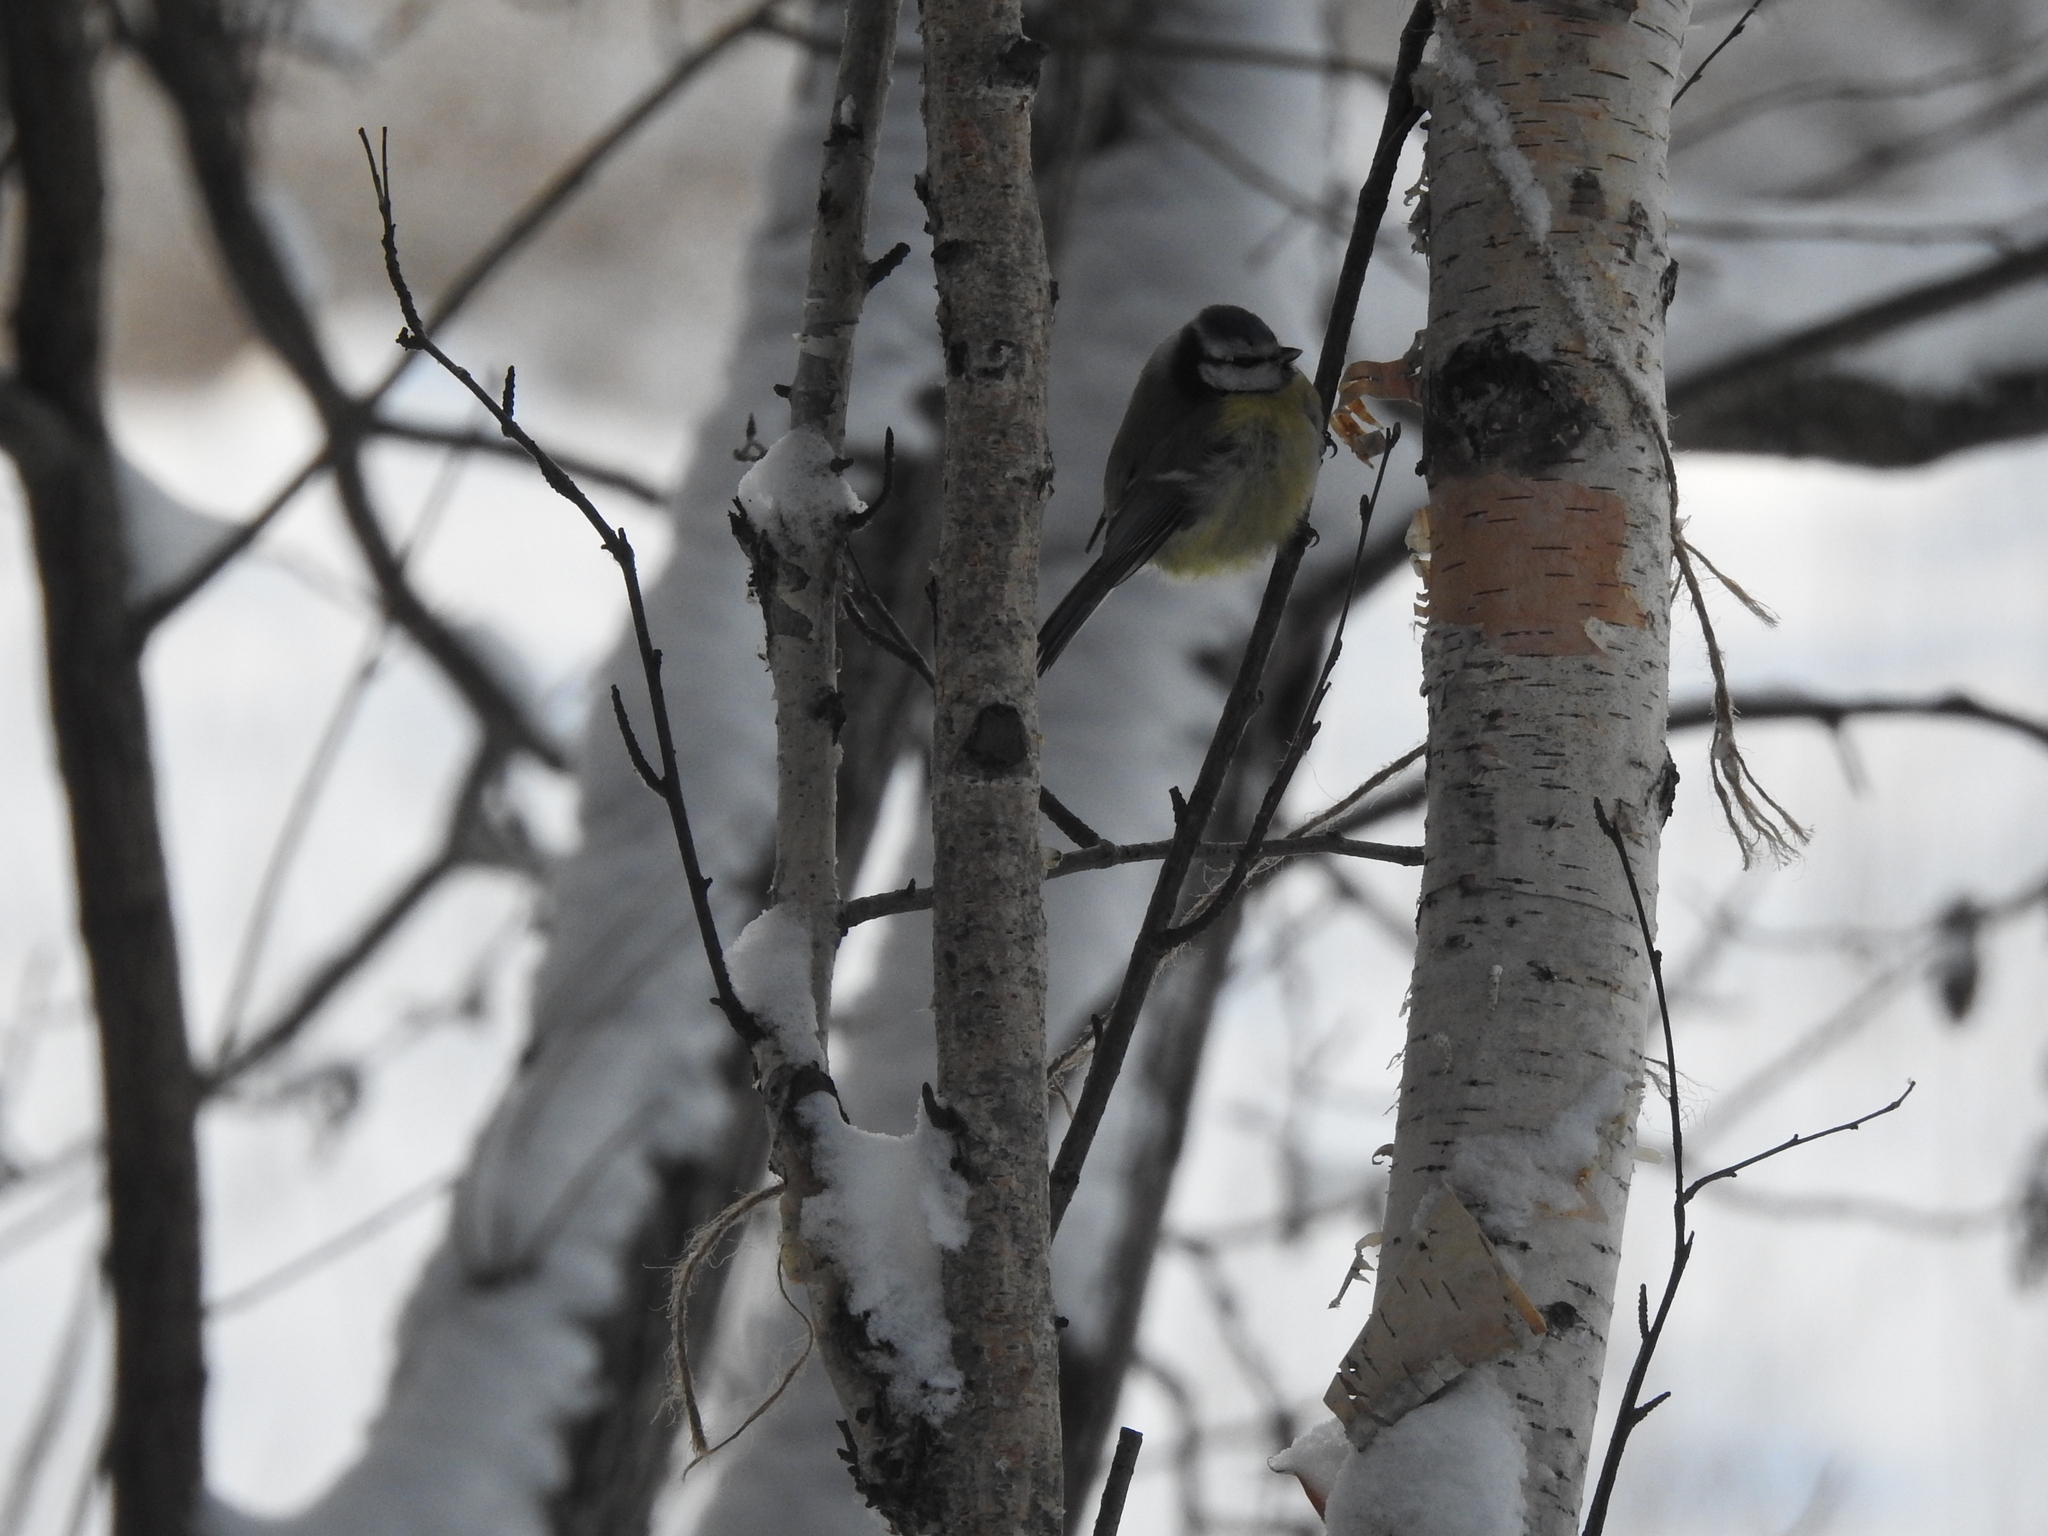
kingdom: Animalia
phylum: Chordata
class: Aves
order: Passeriformes
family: Paridae
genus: Cyanistes
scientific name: Cyanistes caeruleus
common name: Eurasian blue tit
